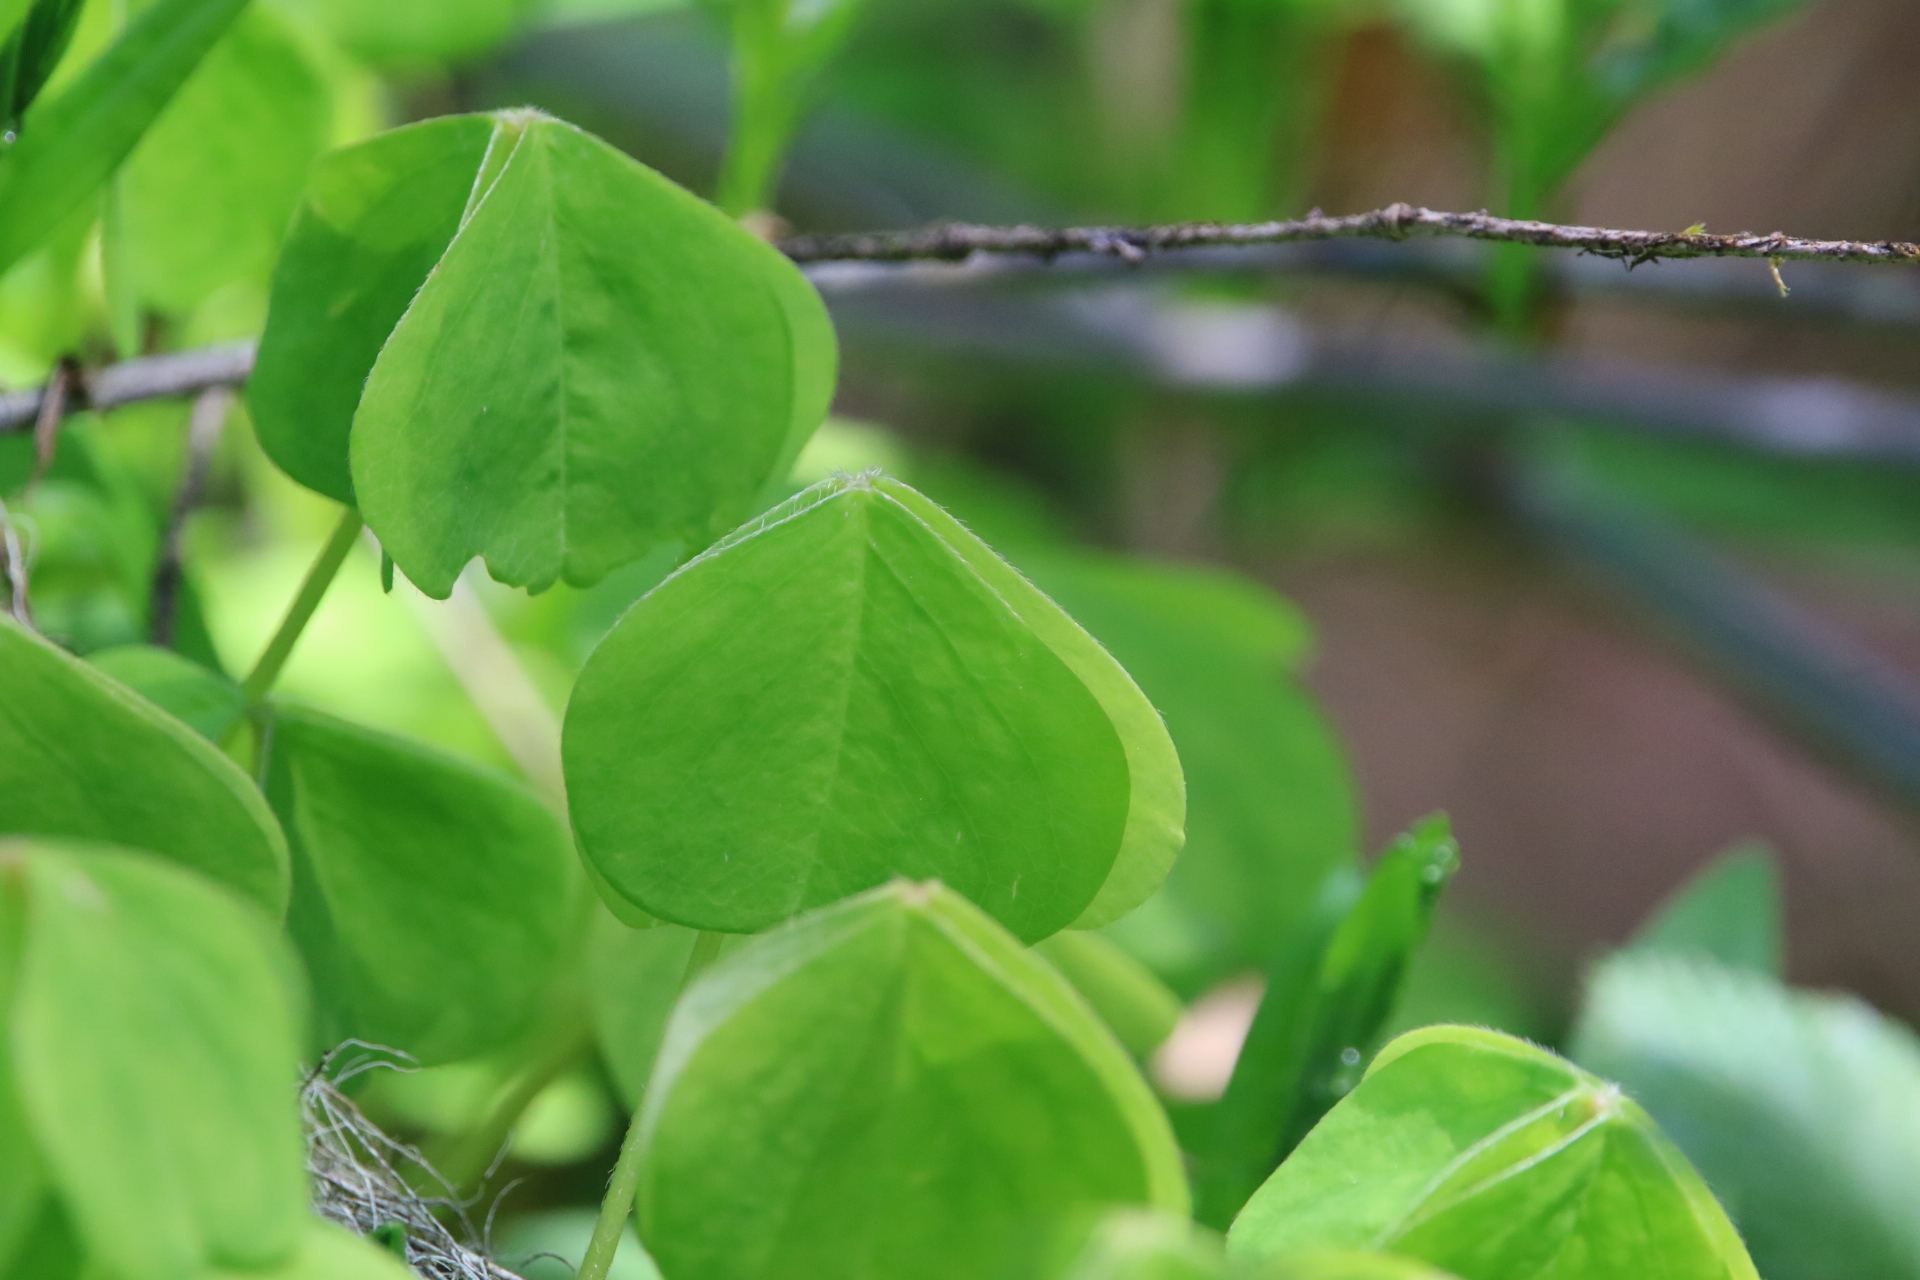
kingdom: Plantae
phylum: Tracheophyta
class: Magnoliopsida
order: Oxalidales
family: Oxalidaceae
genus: Oxalis
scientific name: Oxalis
